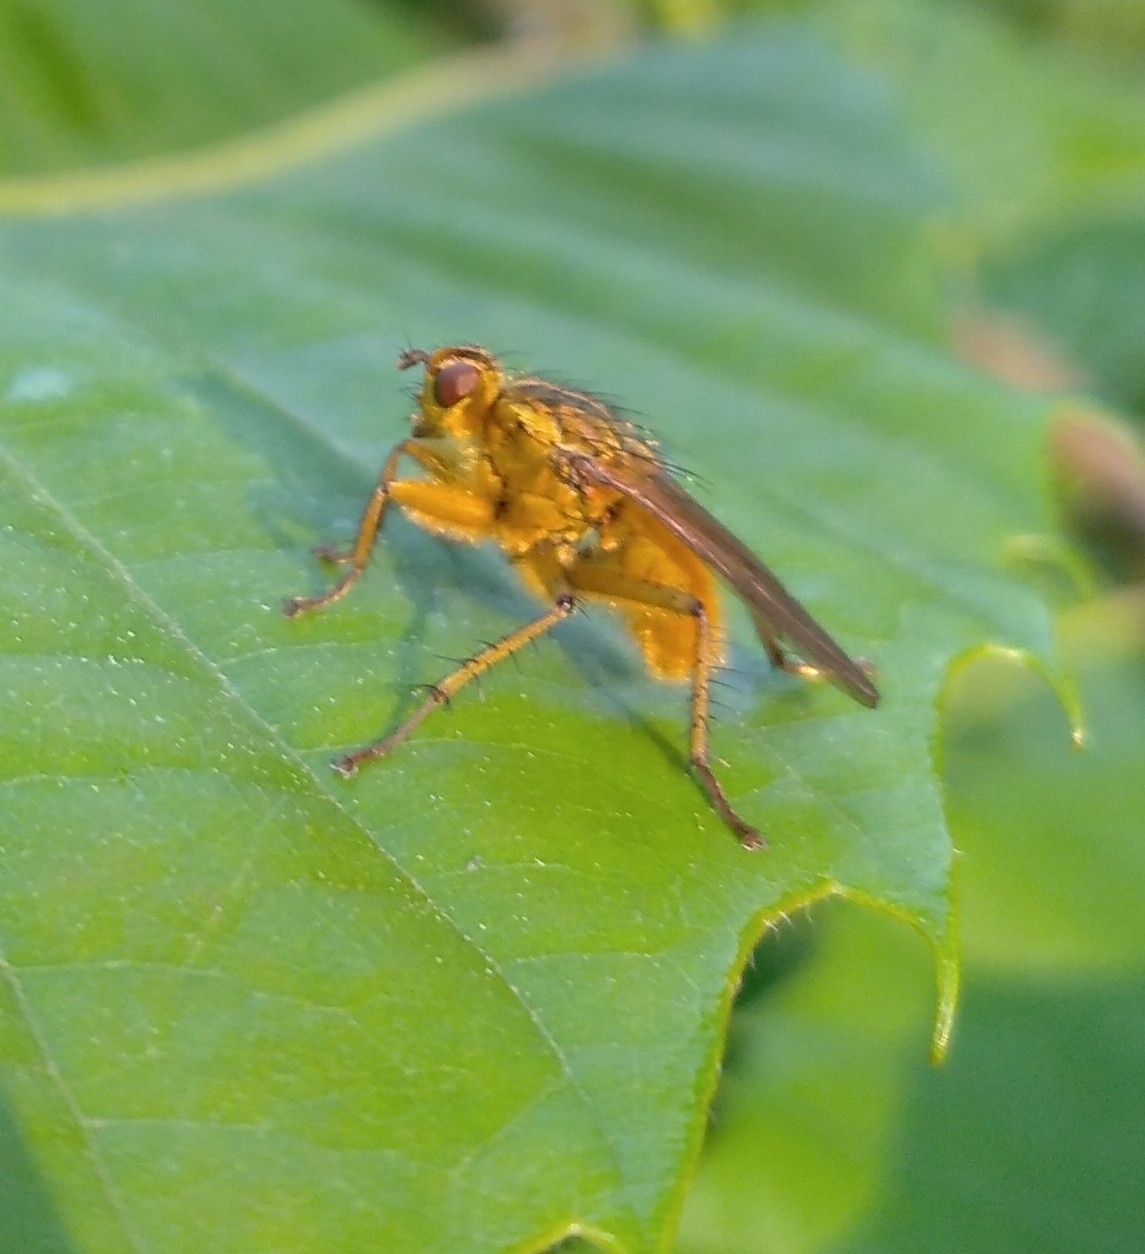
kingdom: Animalia
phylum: Arthropoda
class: Insecta
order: Diptera
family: Scathophagidae
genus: Scathophaga
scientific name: Scathophaga stercoraria
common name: Yellow dung fly
